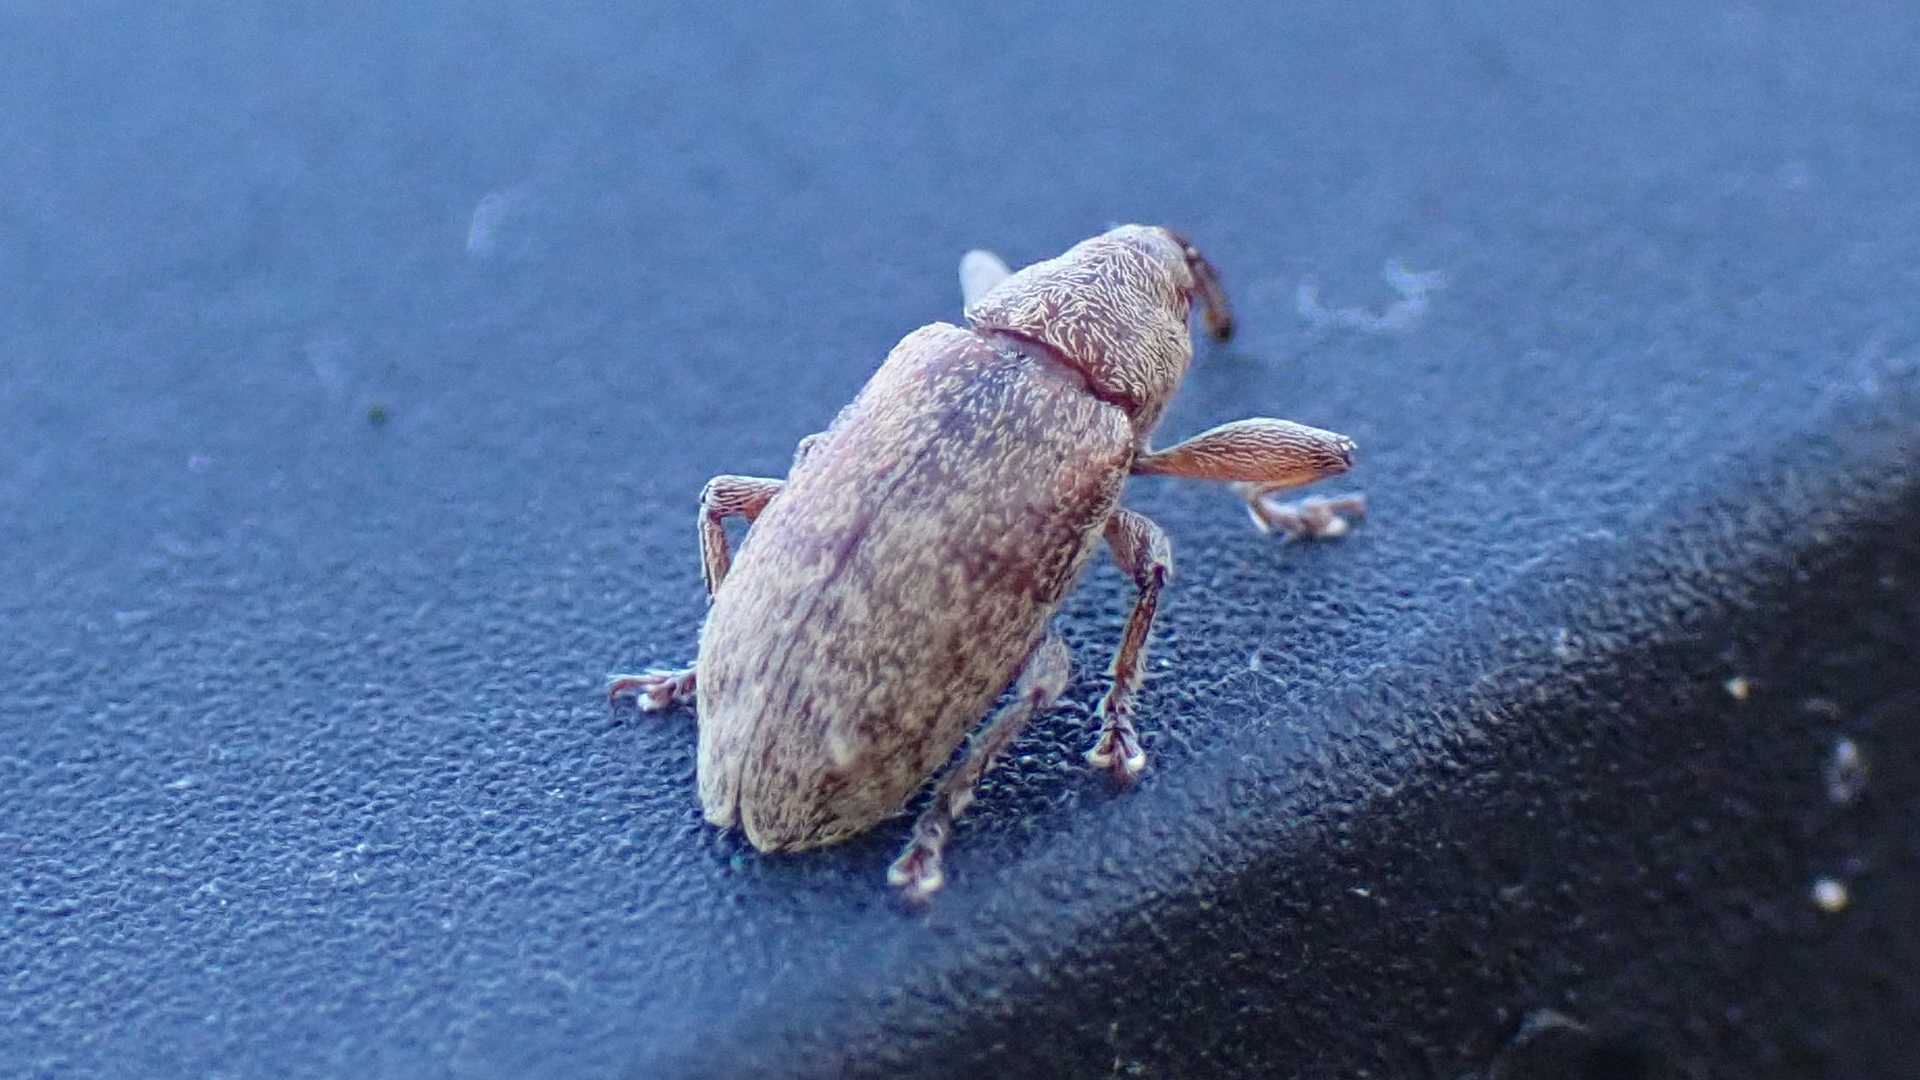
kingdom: Animalia
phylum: Arthropoda
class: Insecta
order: Coleoptera
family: Brachyceridae
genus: Erirhinus
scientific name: Erirhinus filirostris
